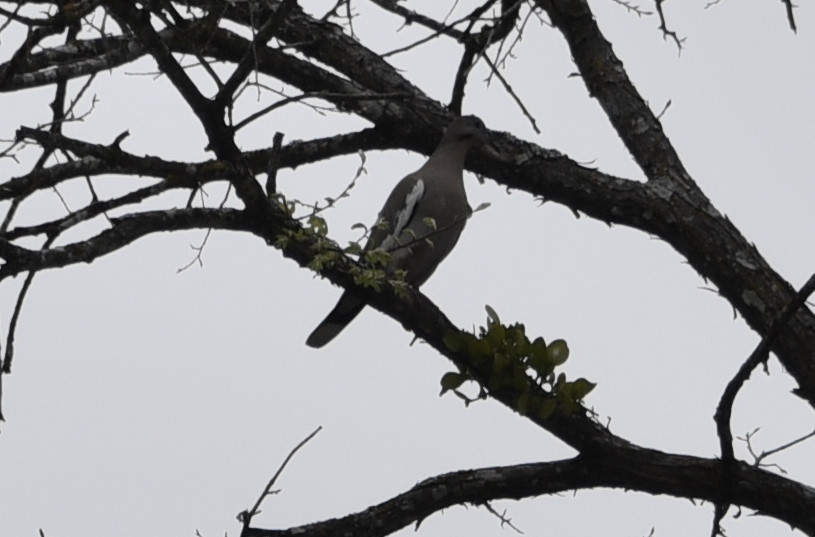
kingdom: Animalia
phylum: Chordata
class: Aves
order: Columbiformes
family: Columbidae
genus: Zenaida
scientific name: Zenaida asiatica
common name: White-winged dove
